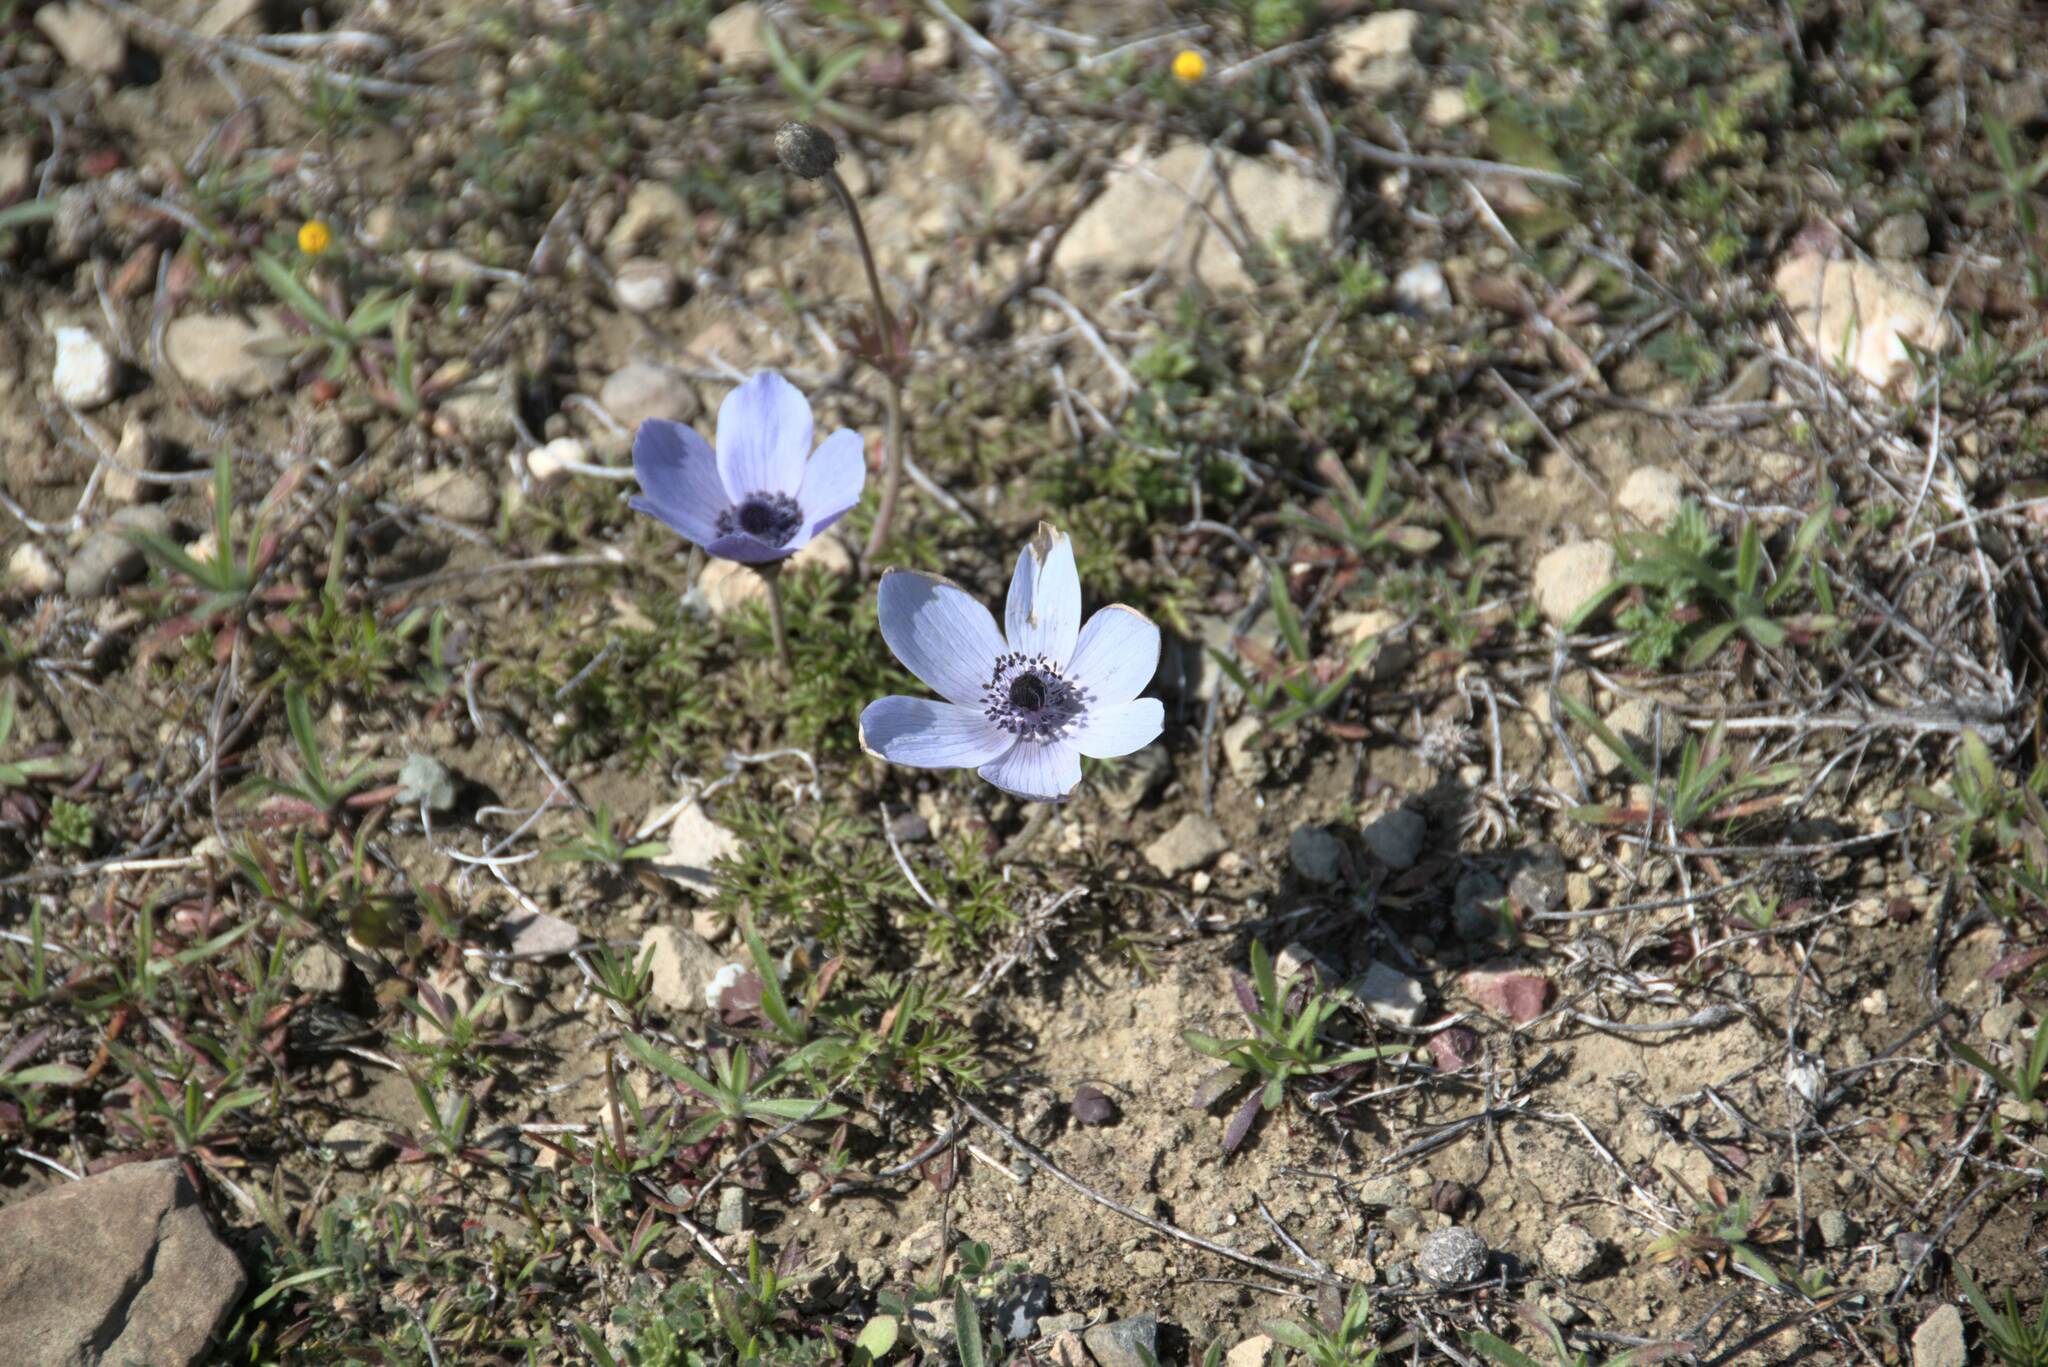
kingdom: Plantae
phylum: Tracheophyta
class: Magnoliopsida
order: Ranunculales
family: Ranunculaceae
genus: Anemone
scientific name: Anemone coronaria
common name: Poppy anemone
